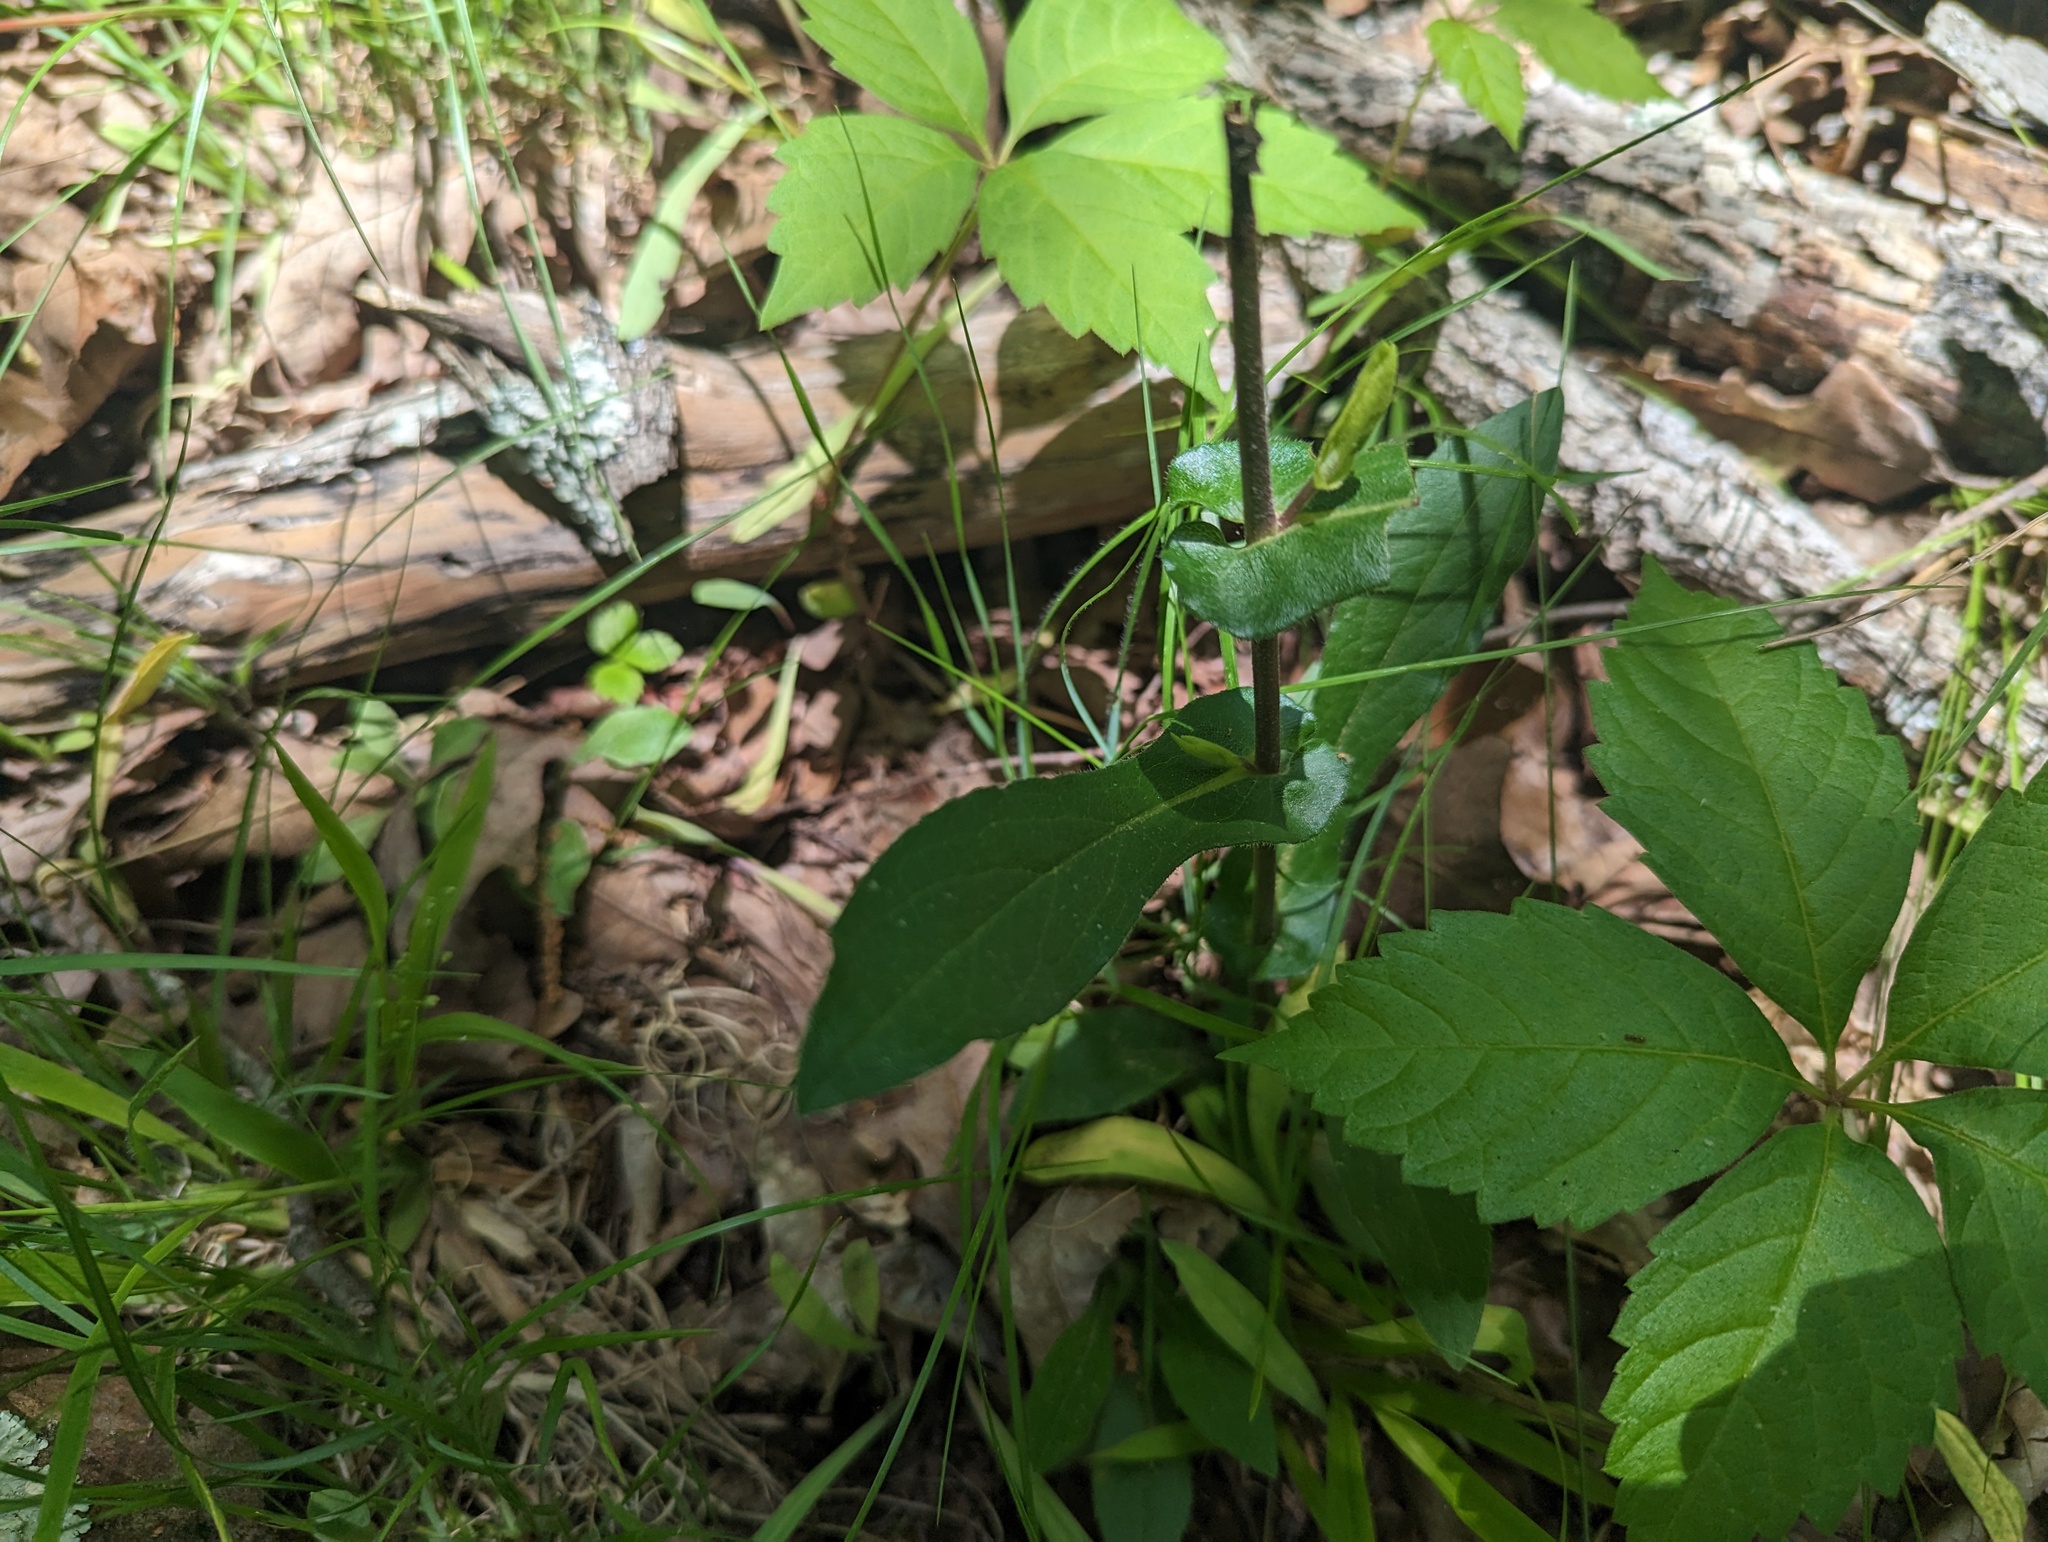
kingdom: Plantae
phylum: Tracheophyta
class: Magnoliopsida
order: Asterales
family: Asteraceae
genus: Symphyotrichum
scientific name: Symphyotrichum patens
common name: Late purple aster
